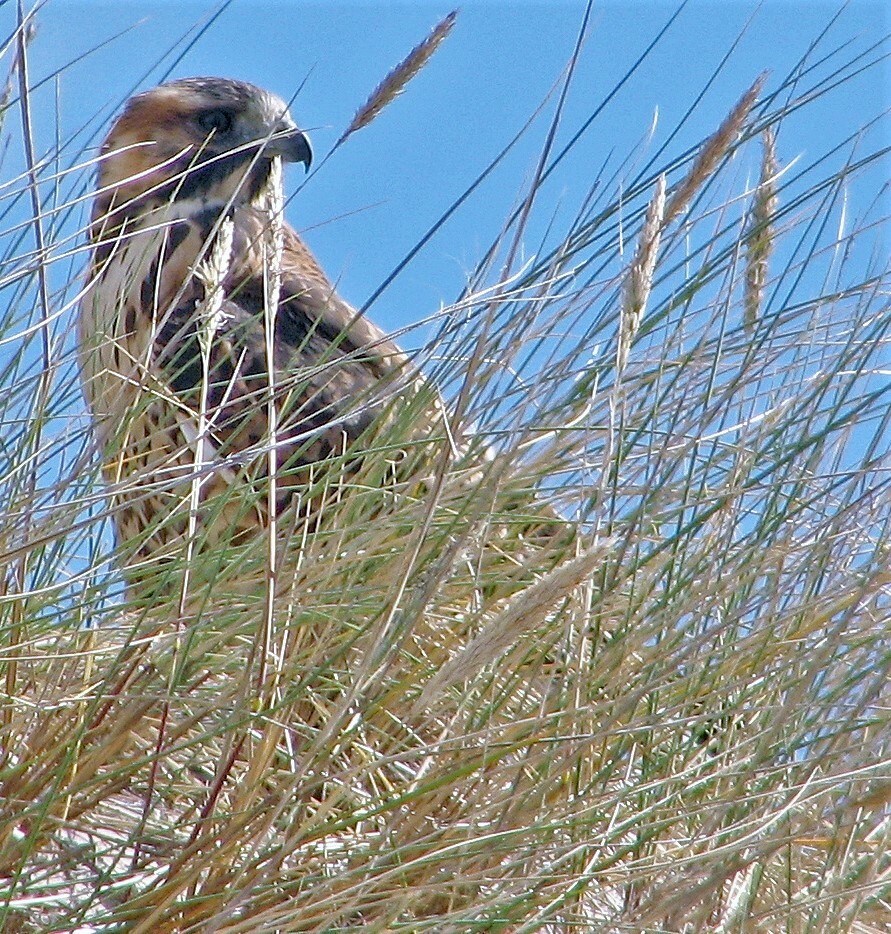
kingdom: Animalia
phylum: Chordata
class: Aves
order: Accipitriformes
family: Accipitridae
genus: Buteo
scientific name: Buteo polyosoma
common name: Variable hawk
